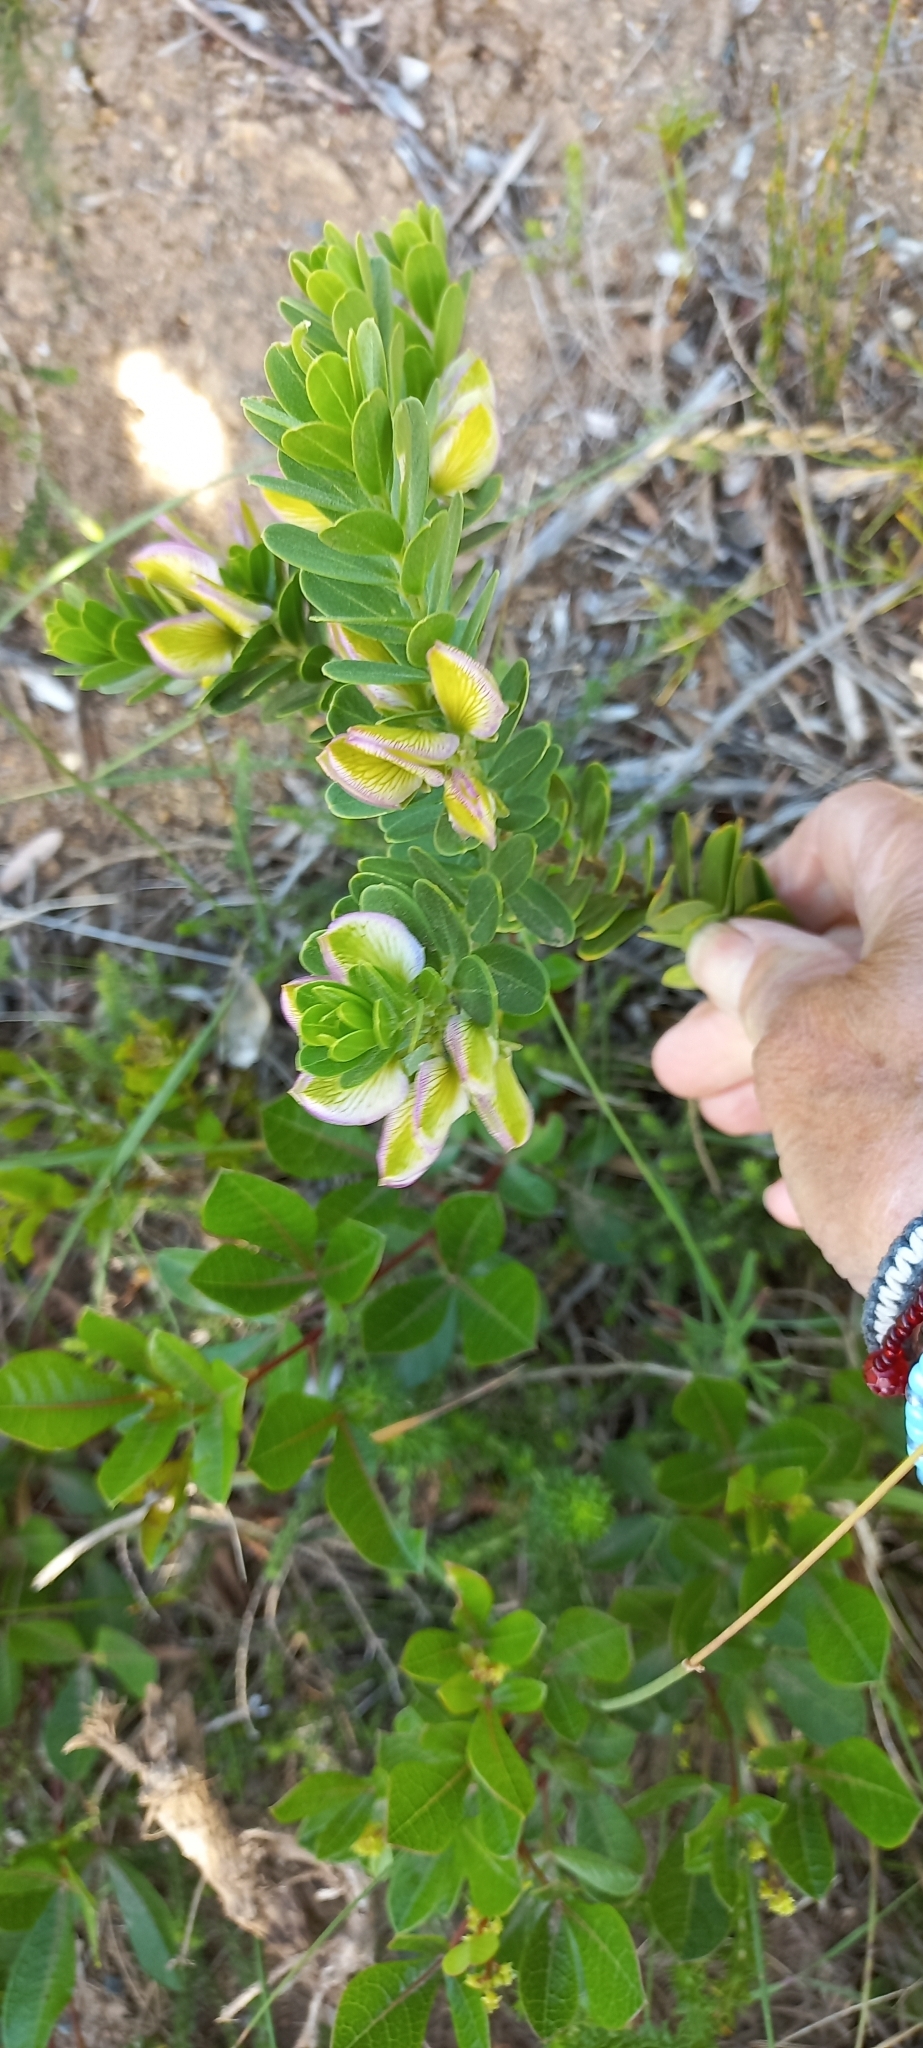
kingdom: Plantae
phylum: Tracheophyta
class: Magnoliopsida
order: Fabales
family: Polygalaceae
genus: Polygala
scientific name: Polygala myrtifolia
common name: Myrtle-leaf milkwort
